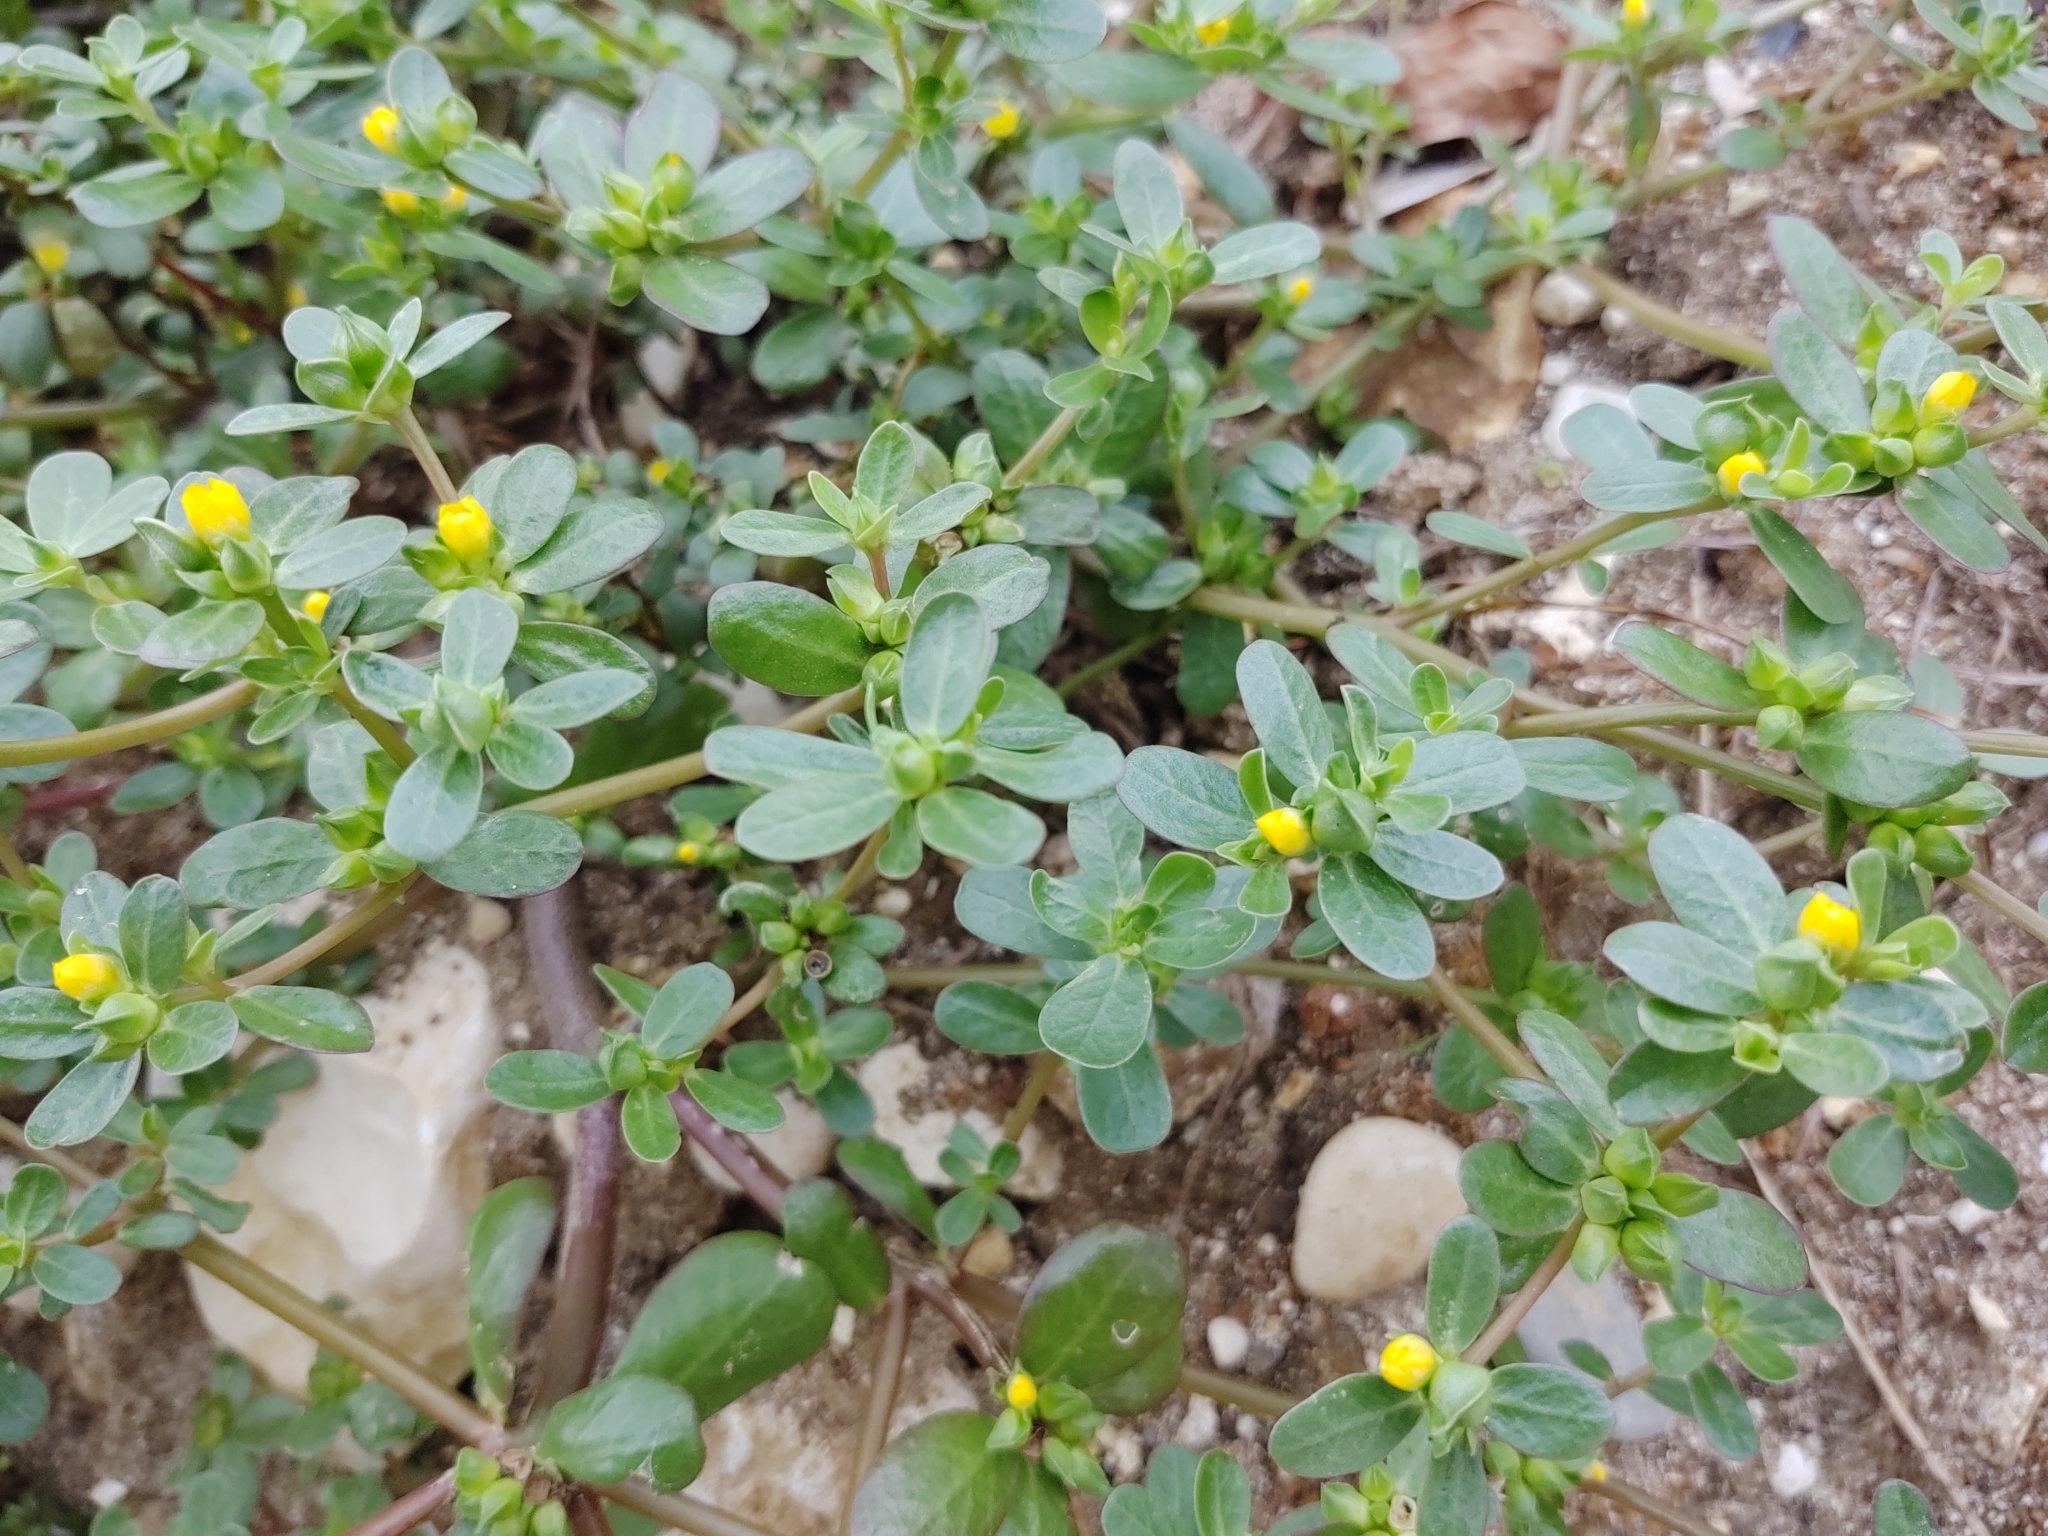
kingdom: Plantae
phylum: Tracheophyta
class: Magnoliopsida
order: Caryophyllales
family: Portulacaceae
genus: Portulaca
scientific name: Portulaca oleracea
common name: Common purslane
